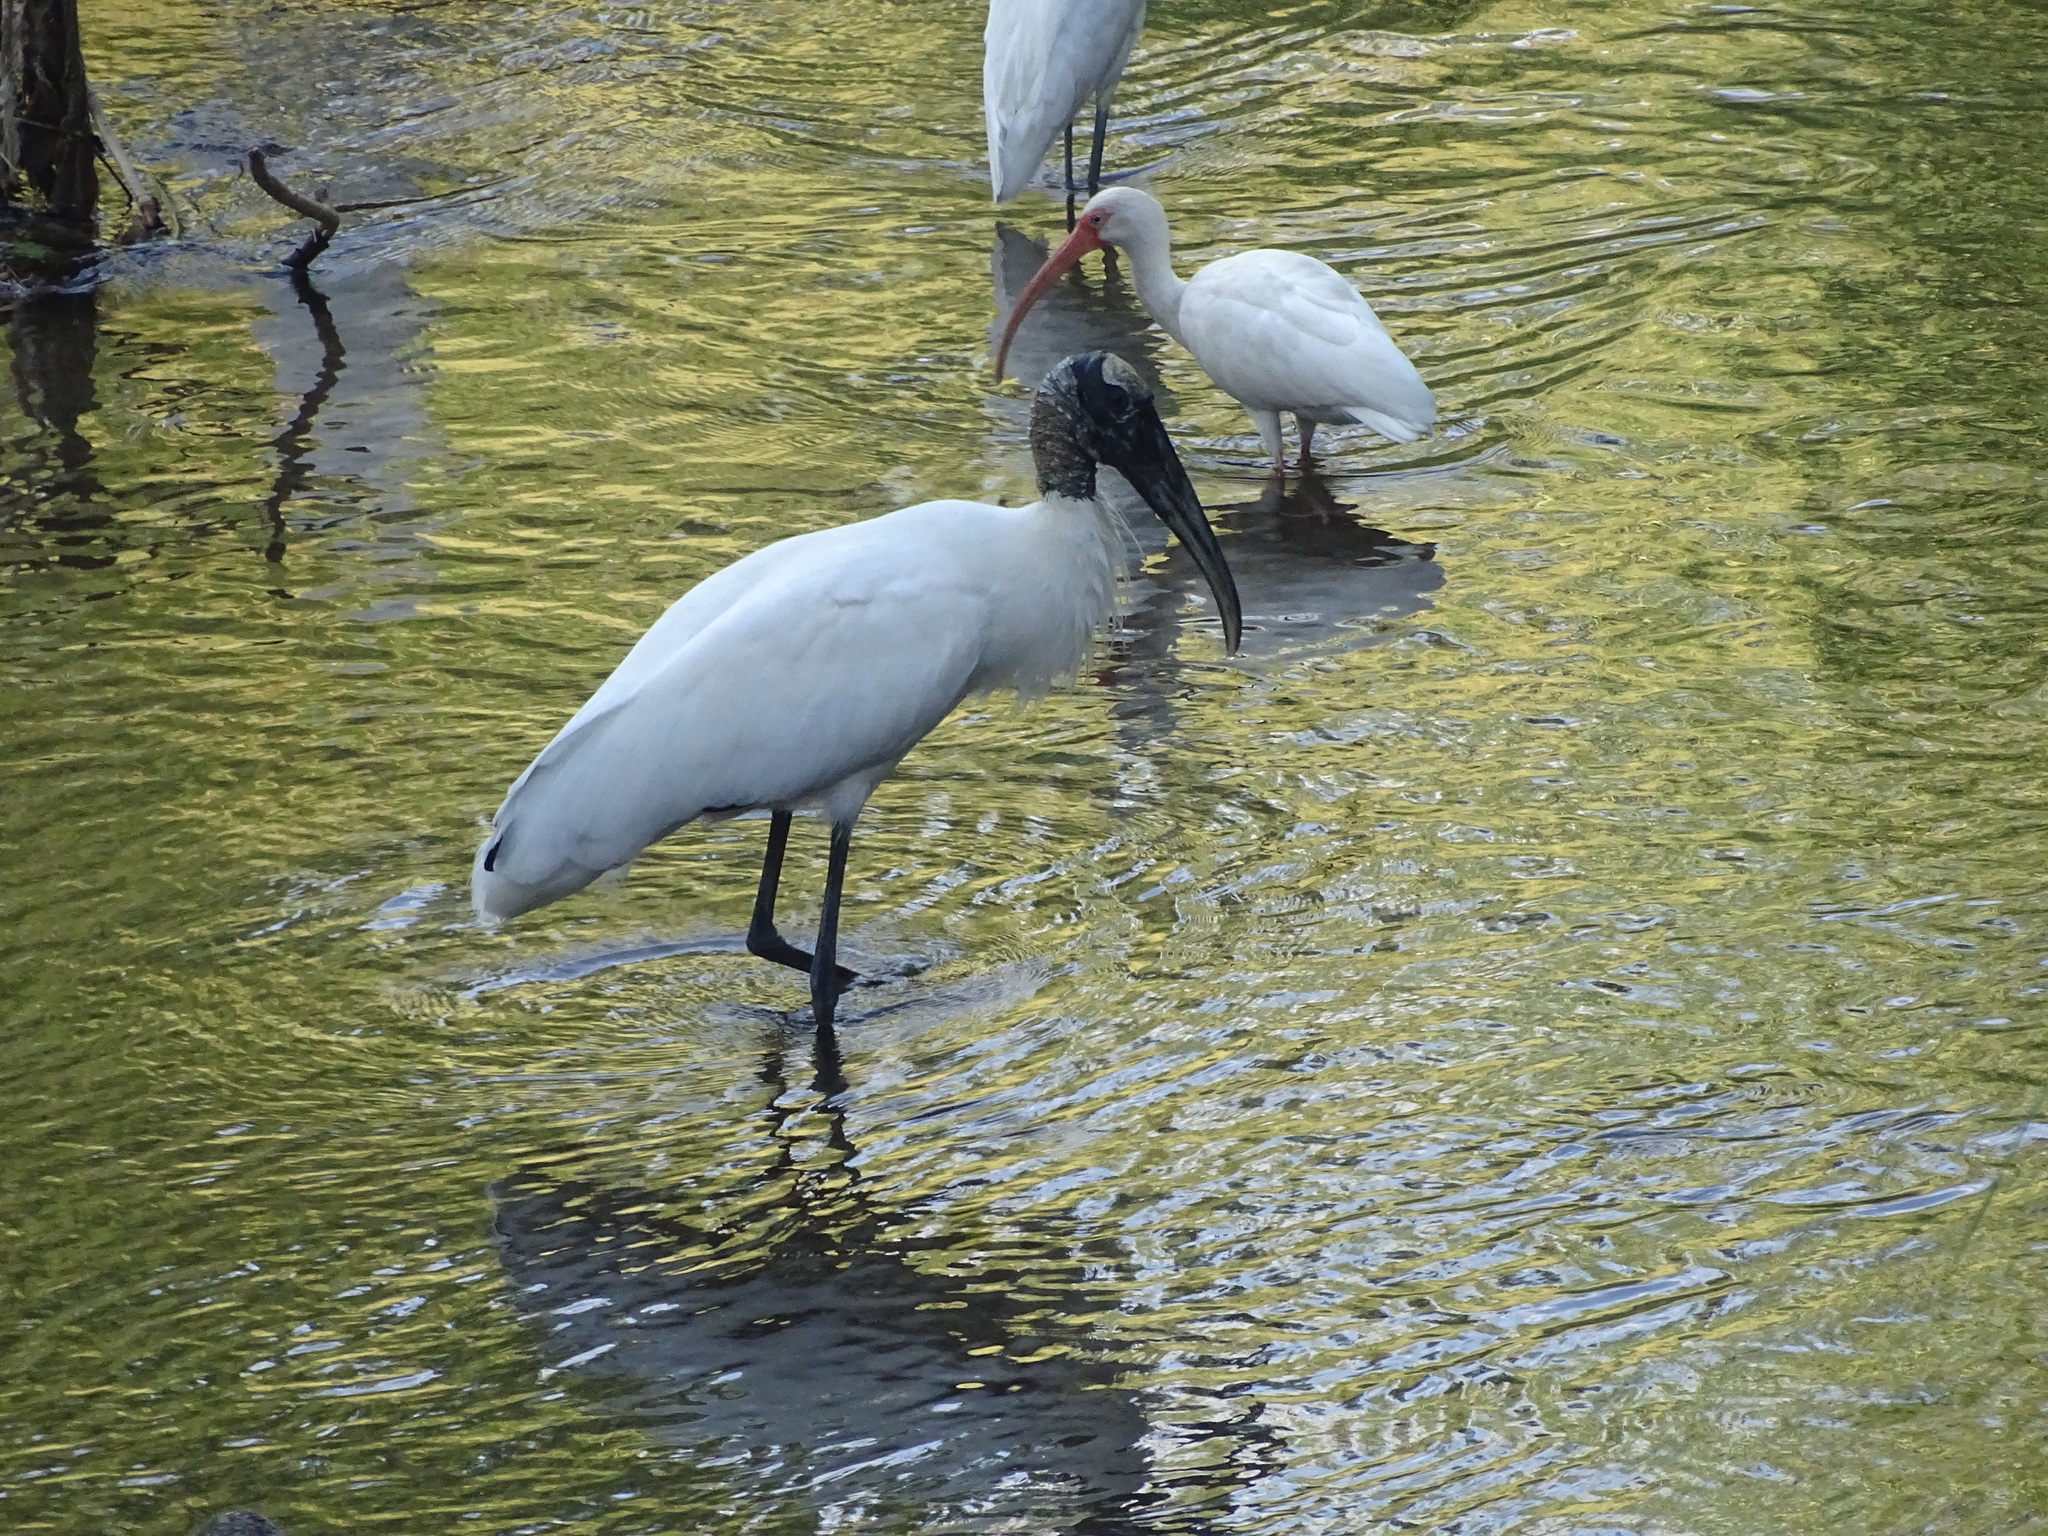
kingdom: Animalia
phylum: Chordata
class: Aves
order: Ciconiiformes
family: Ciconiidae
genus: Mycteria
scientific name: Mycteria americana
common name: Wood stork
